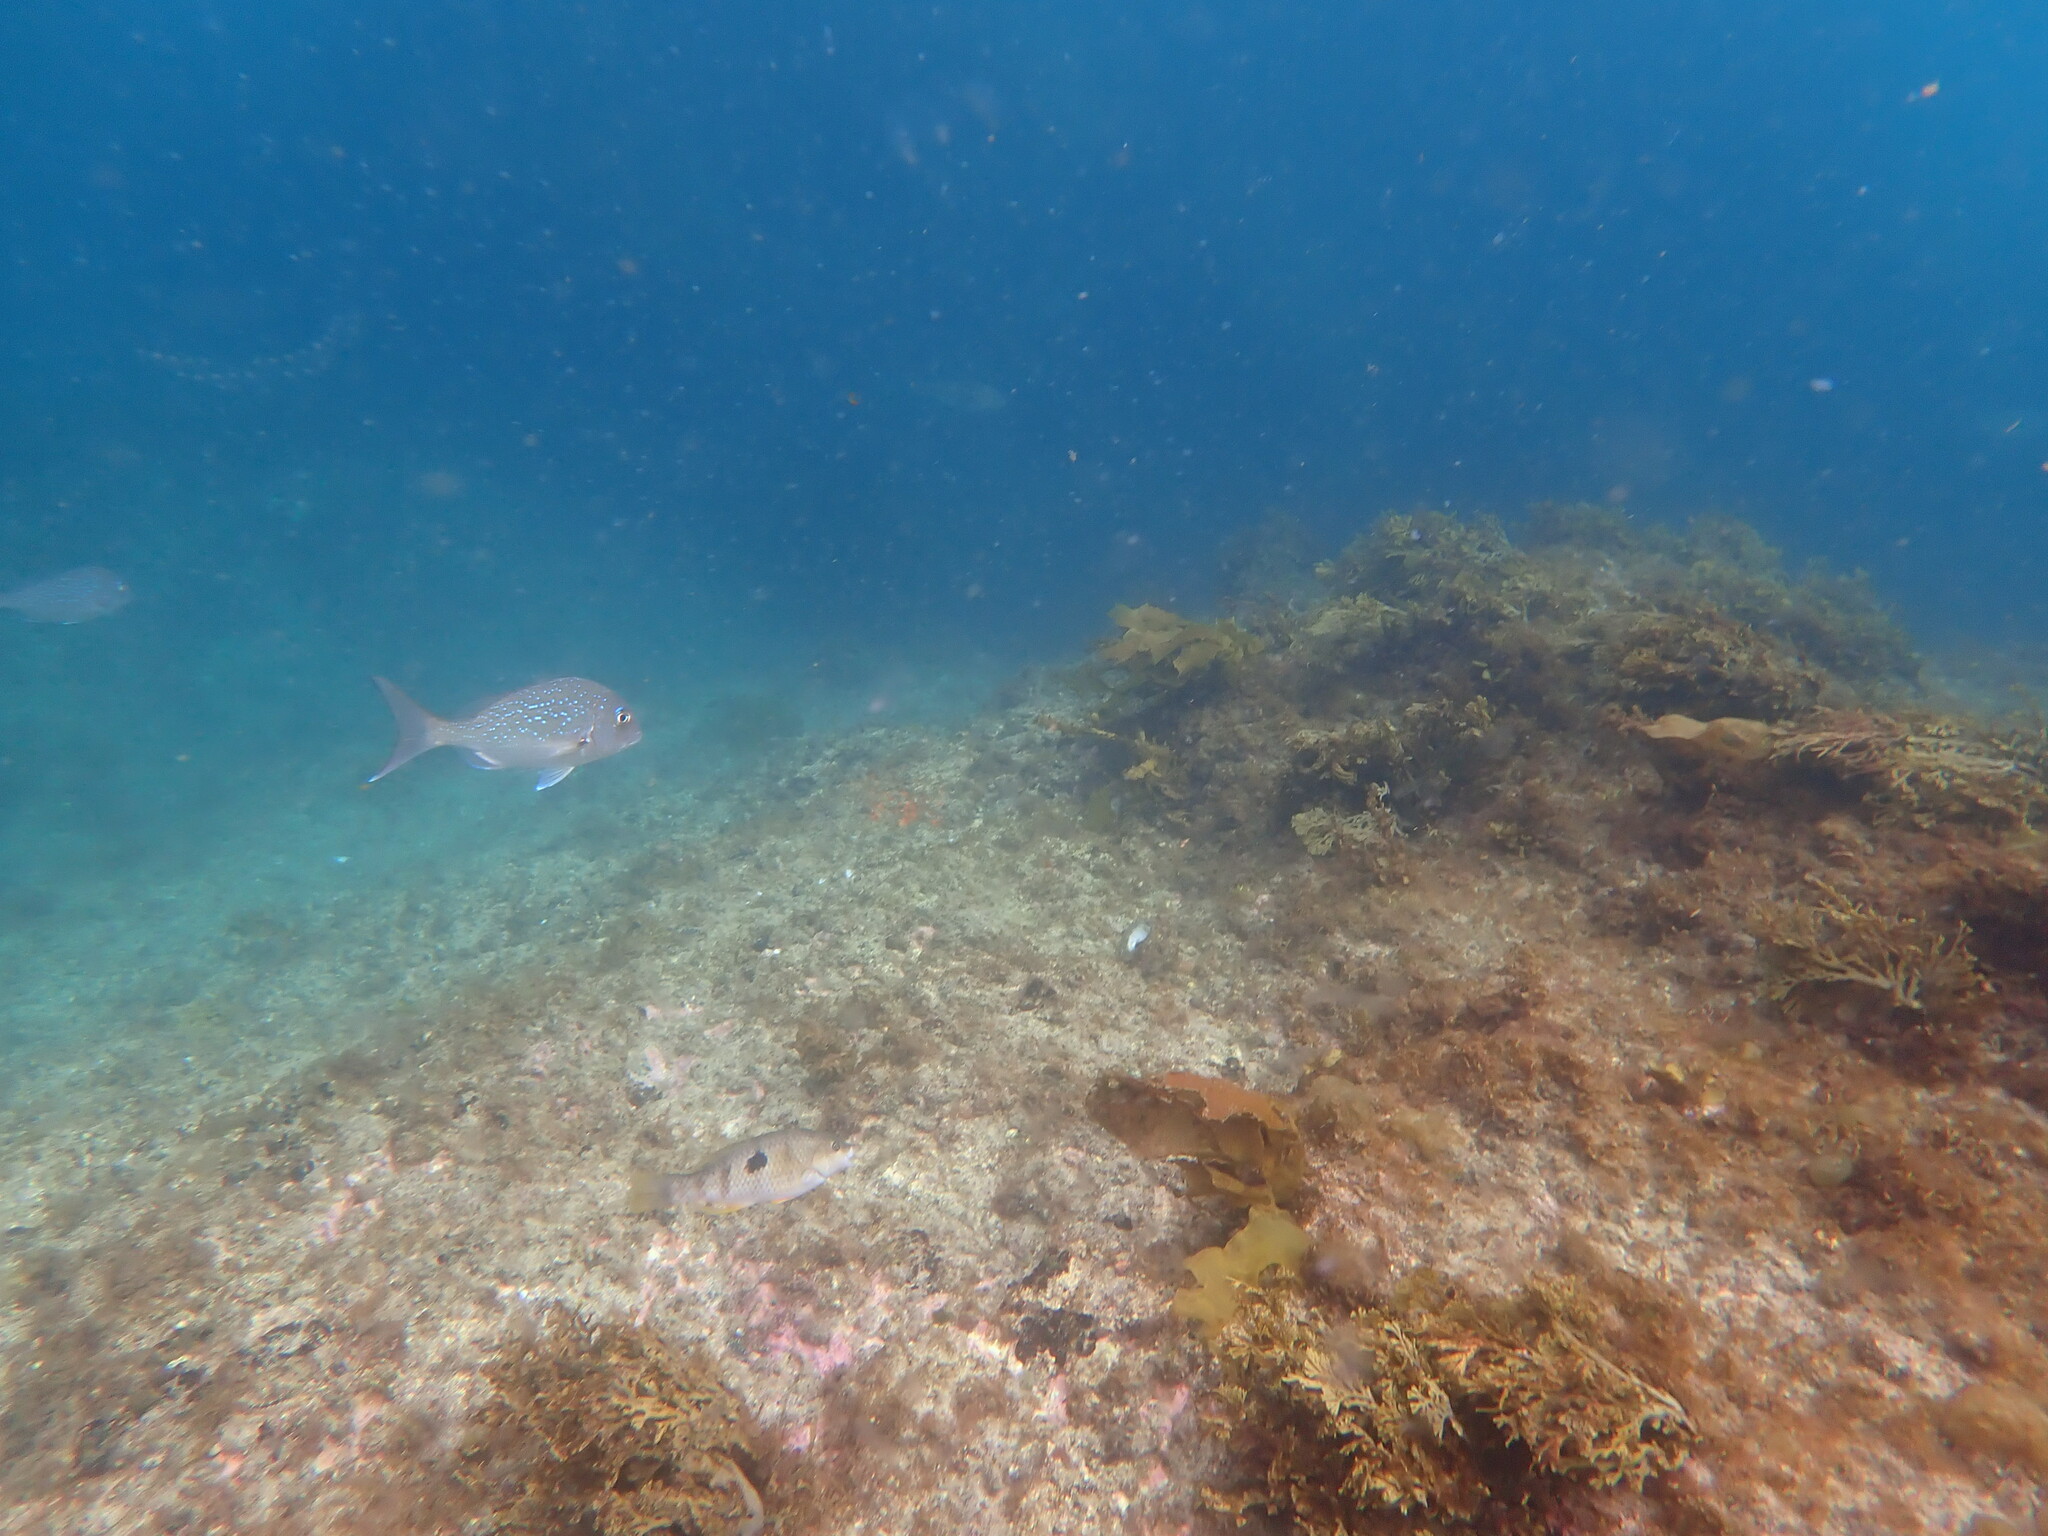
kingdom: Animalia
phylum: Chordata
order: Perciformes
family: Labridae
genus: Notolabrus
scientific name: Notolabrus celidotus
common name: Spotty
